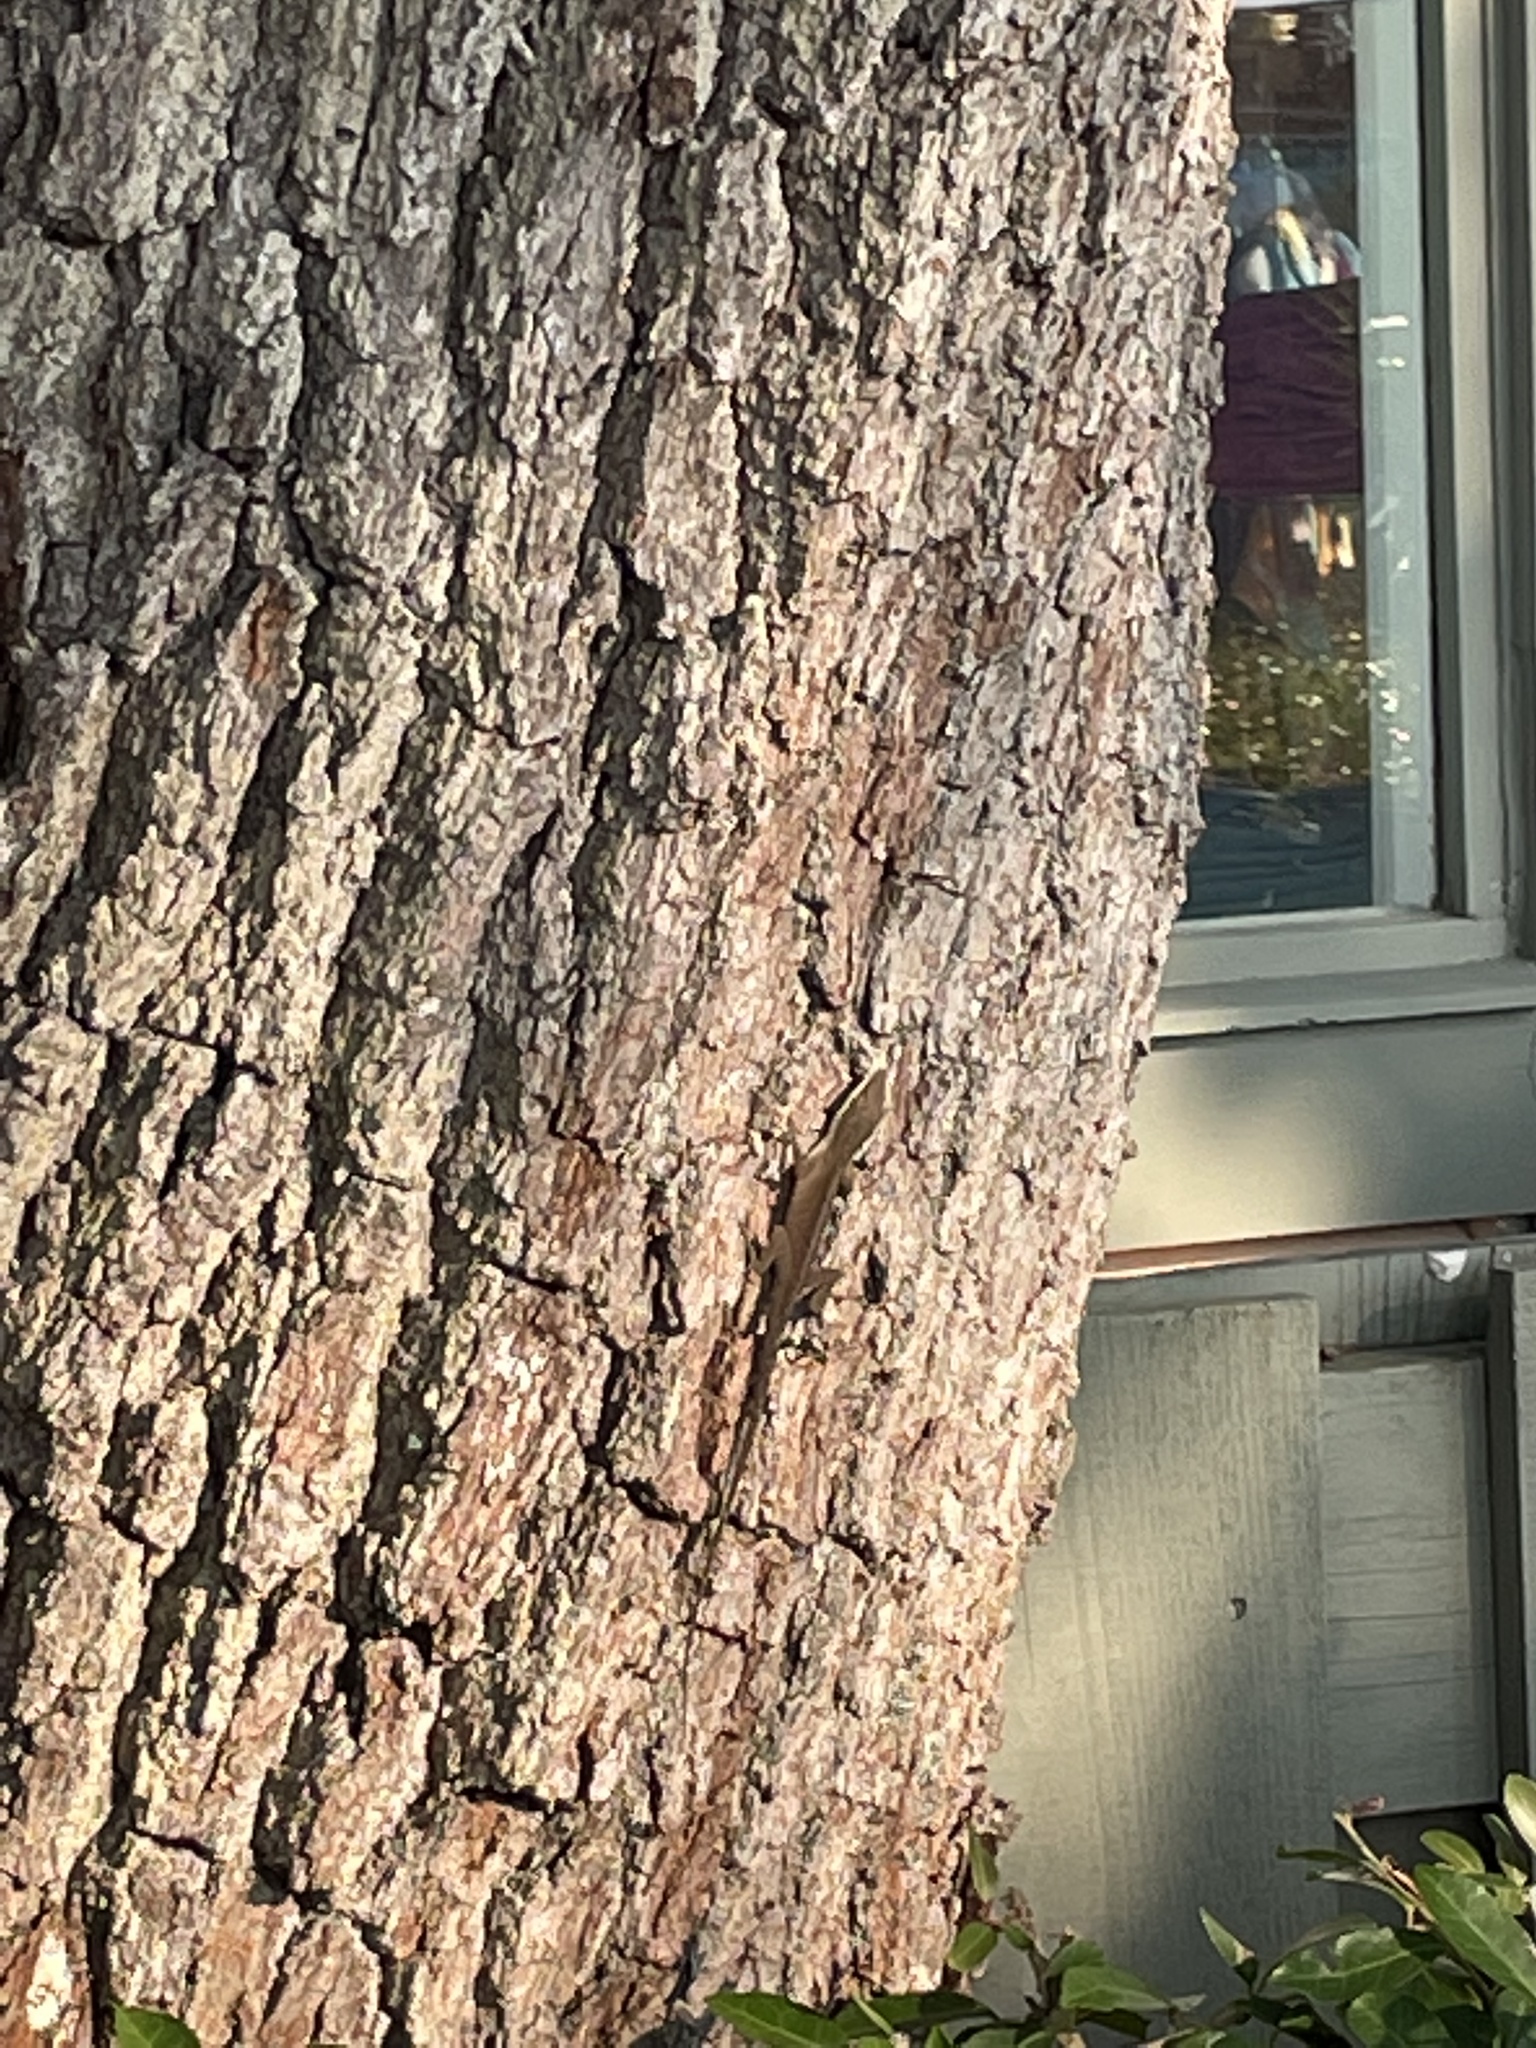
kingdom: Animalia
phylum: Chordata
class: Squamata
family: Dactyloidae
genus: Anolis
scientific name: Anolis carolinensis
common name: Green anole
